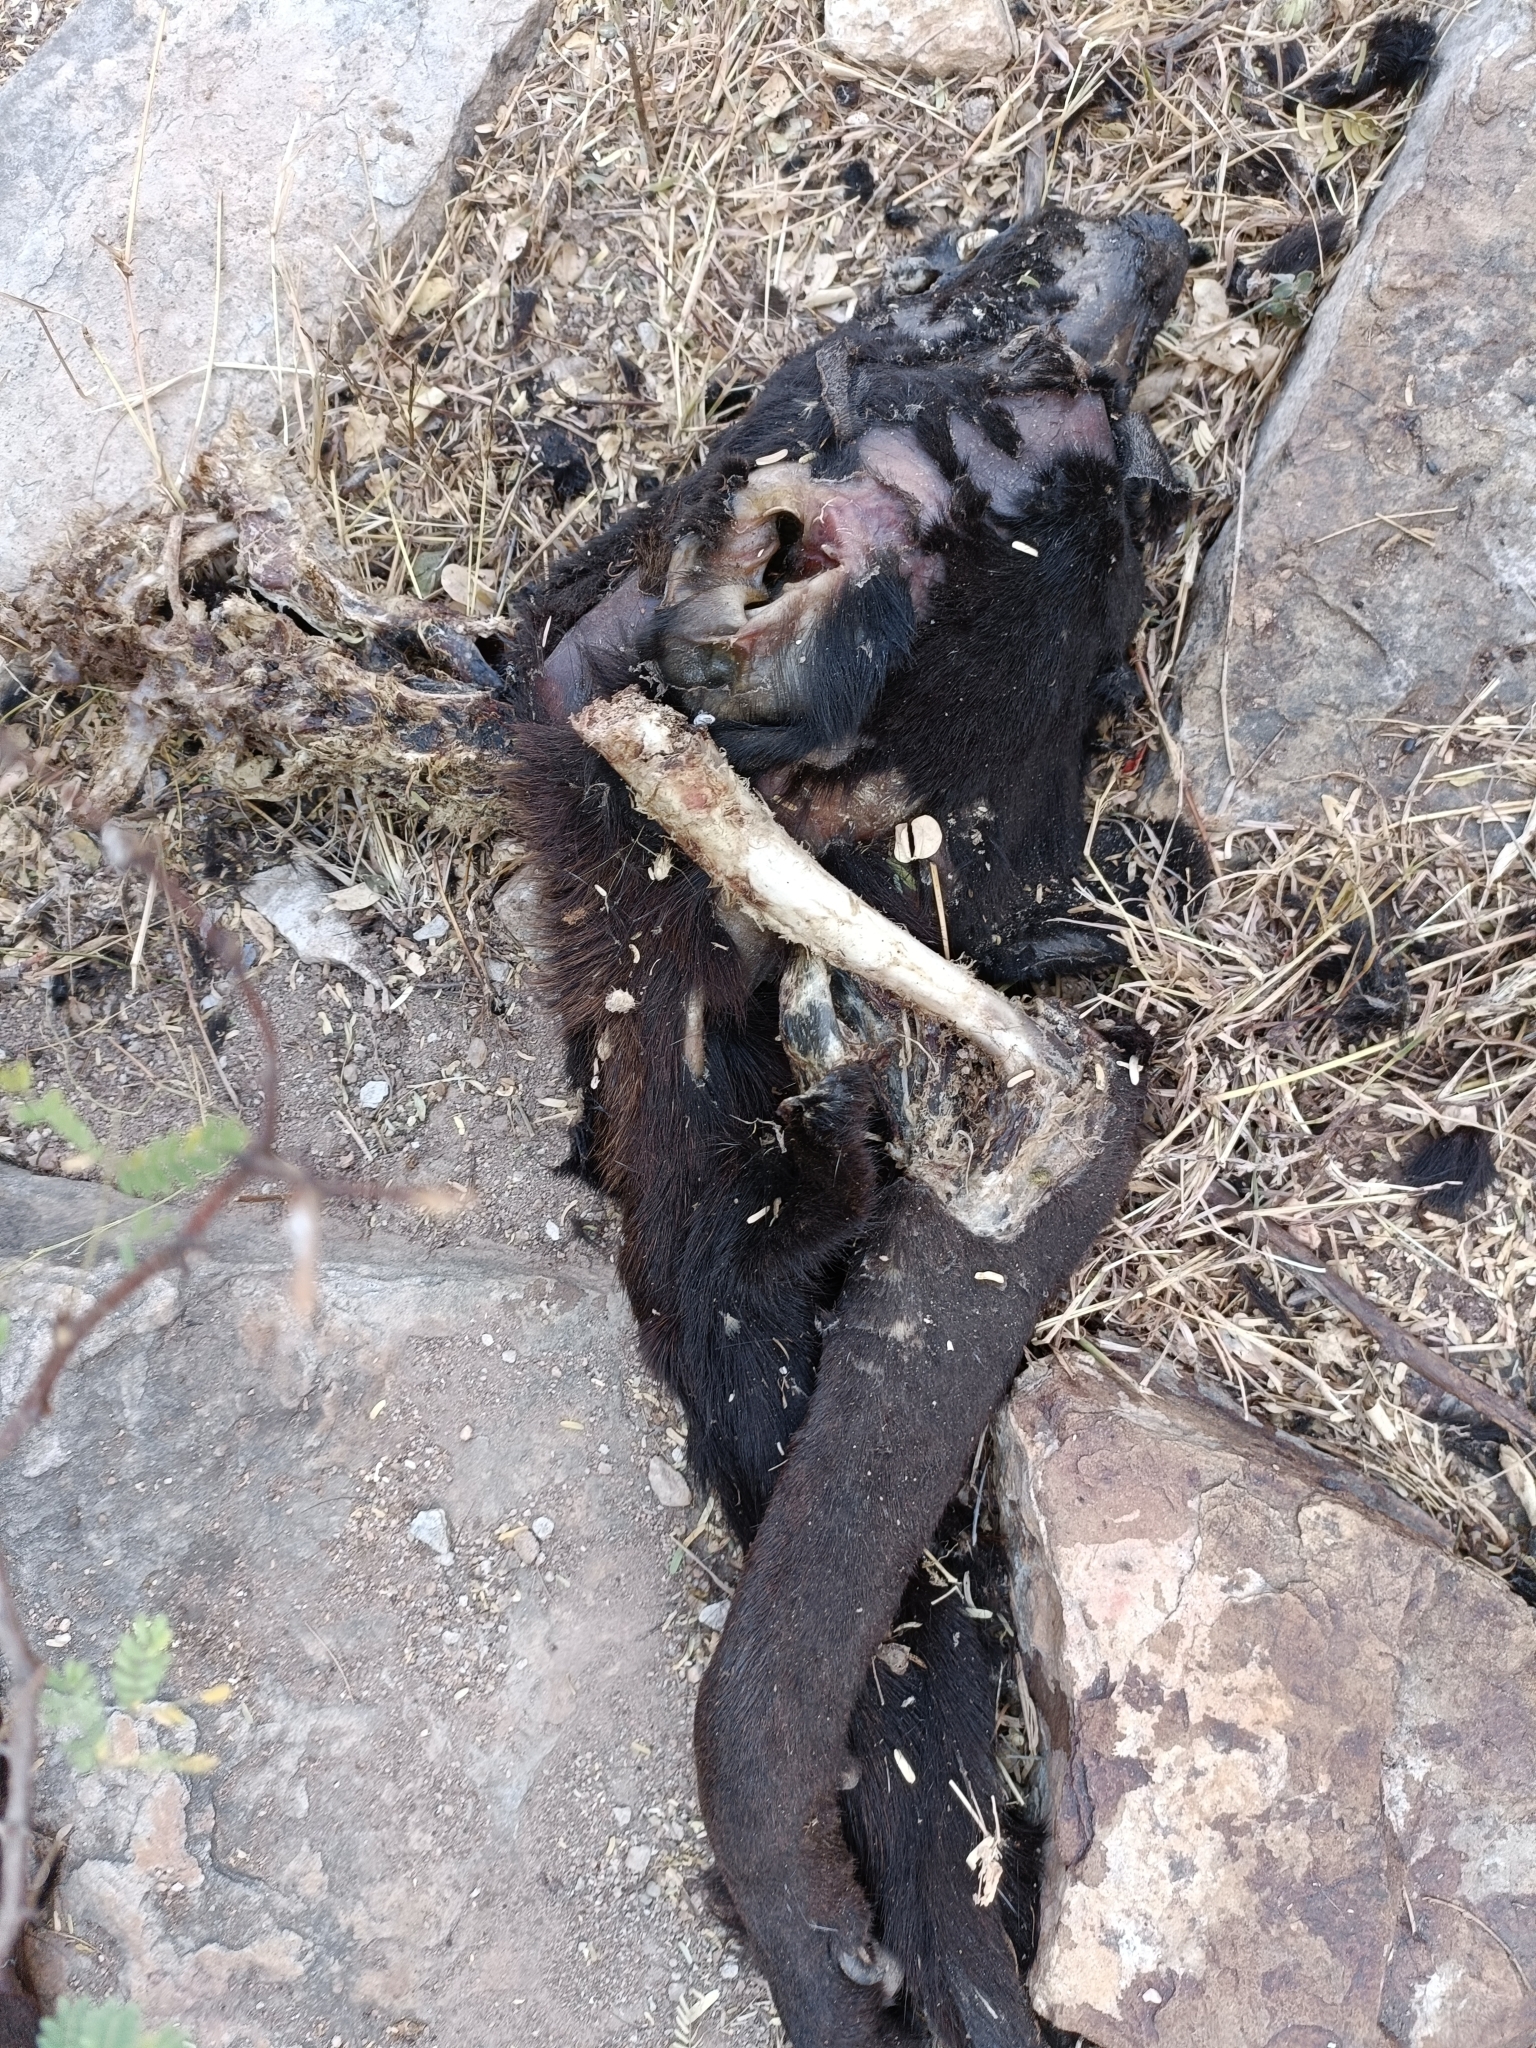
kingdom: Animalia
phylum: Chordata
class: Mammalia
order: Carnivora
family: Canidae
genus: Canis
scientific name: Canis lupus
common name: Gray wolf
